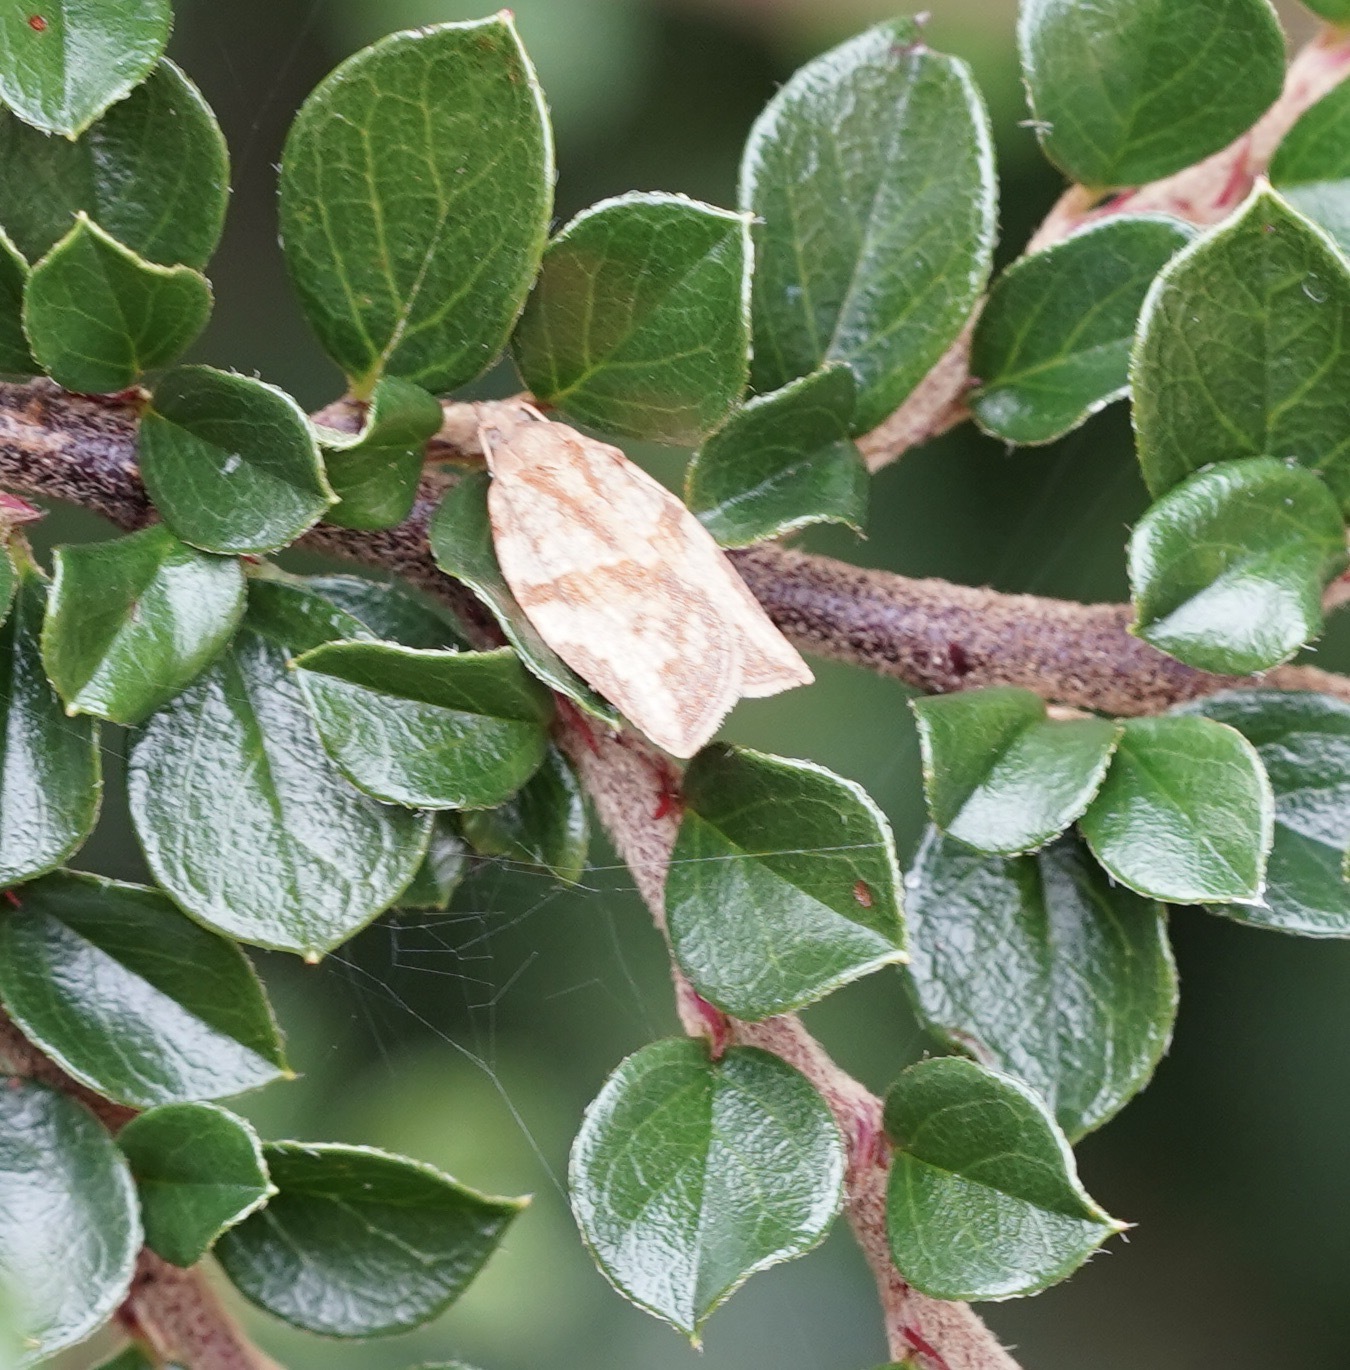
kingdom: Animalia
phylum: Arthropoda
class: Insecta
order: Lepidoptera
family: Tortricidae
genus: Epiphyas
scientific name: Epiphyas postvittana
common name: Light brown apple moth
